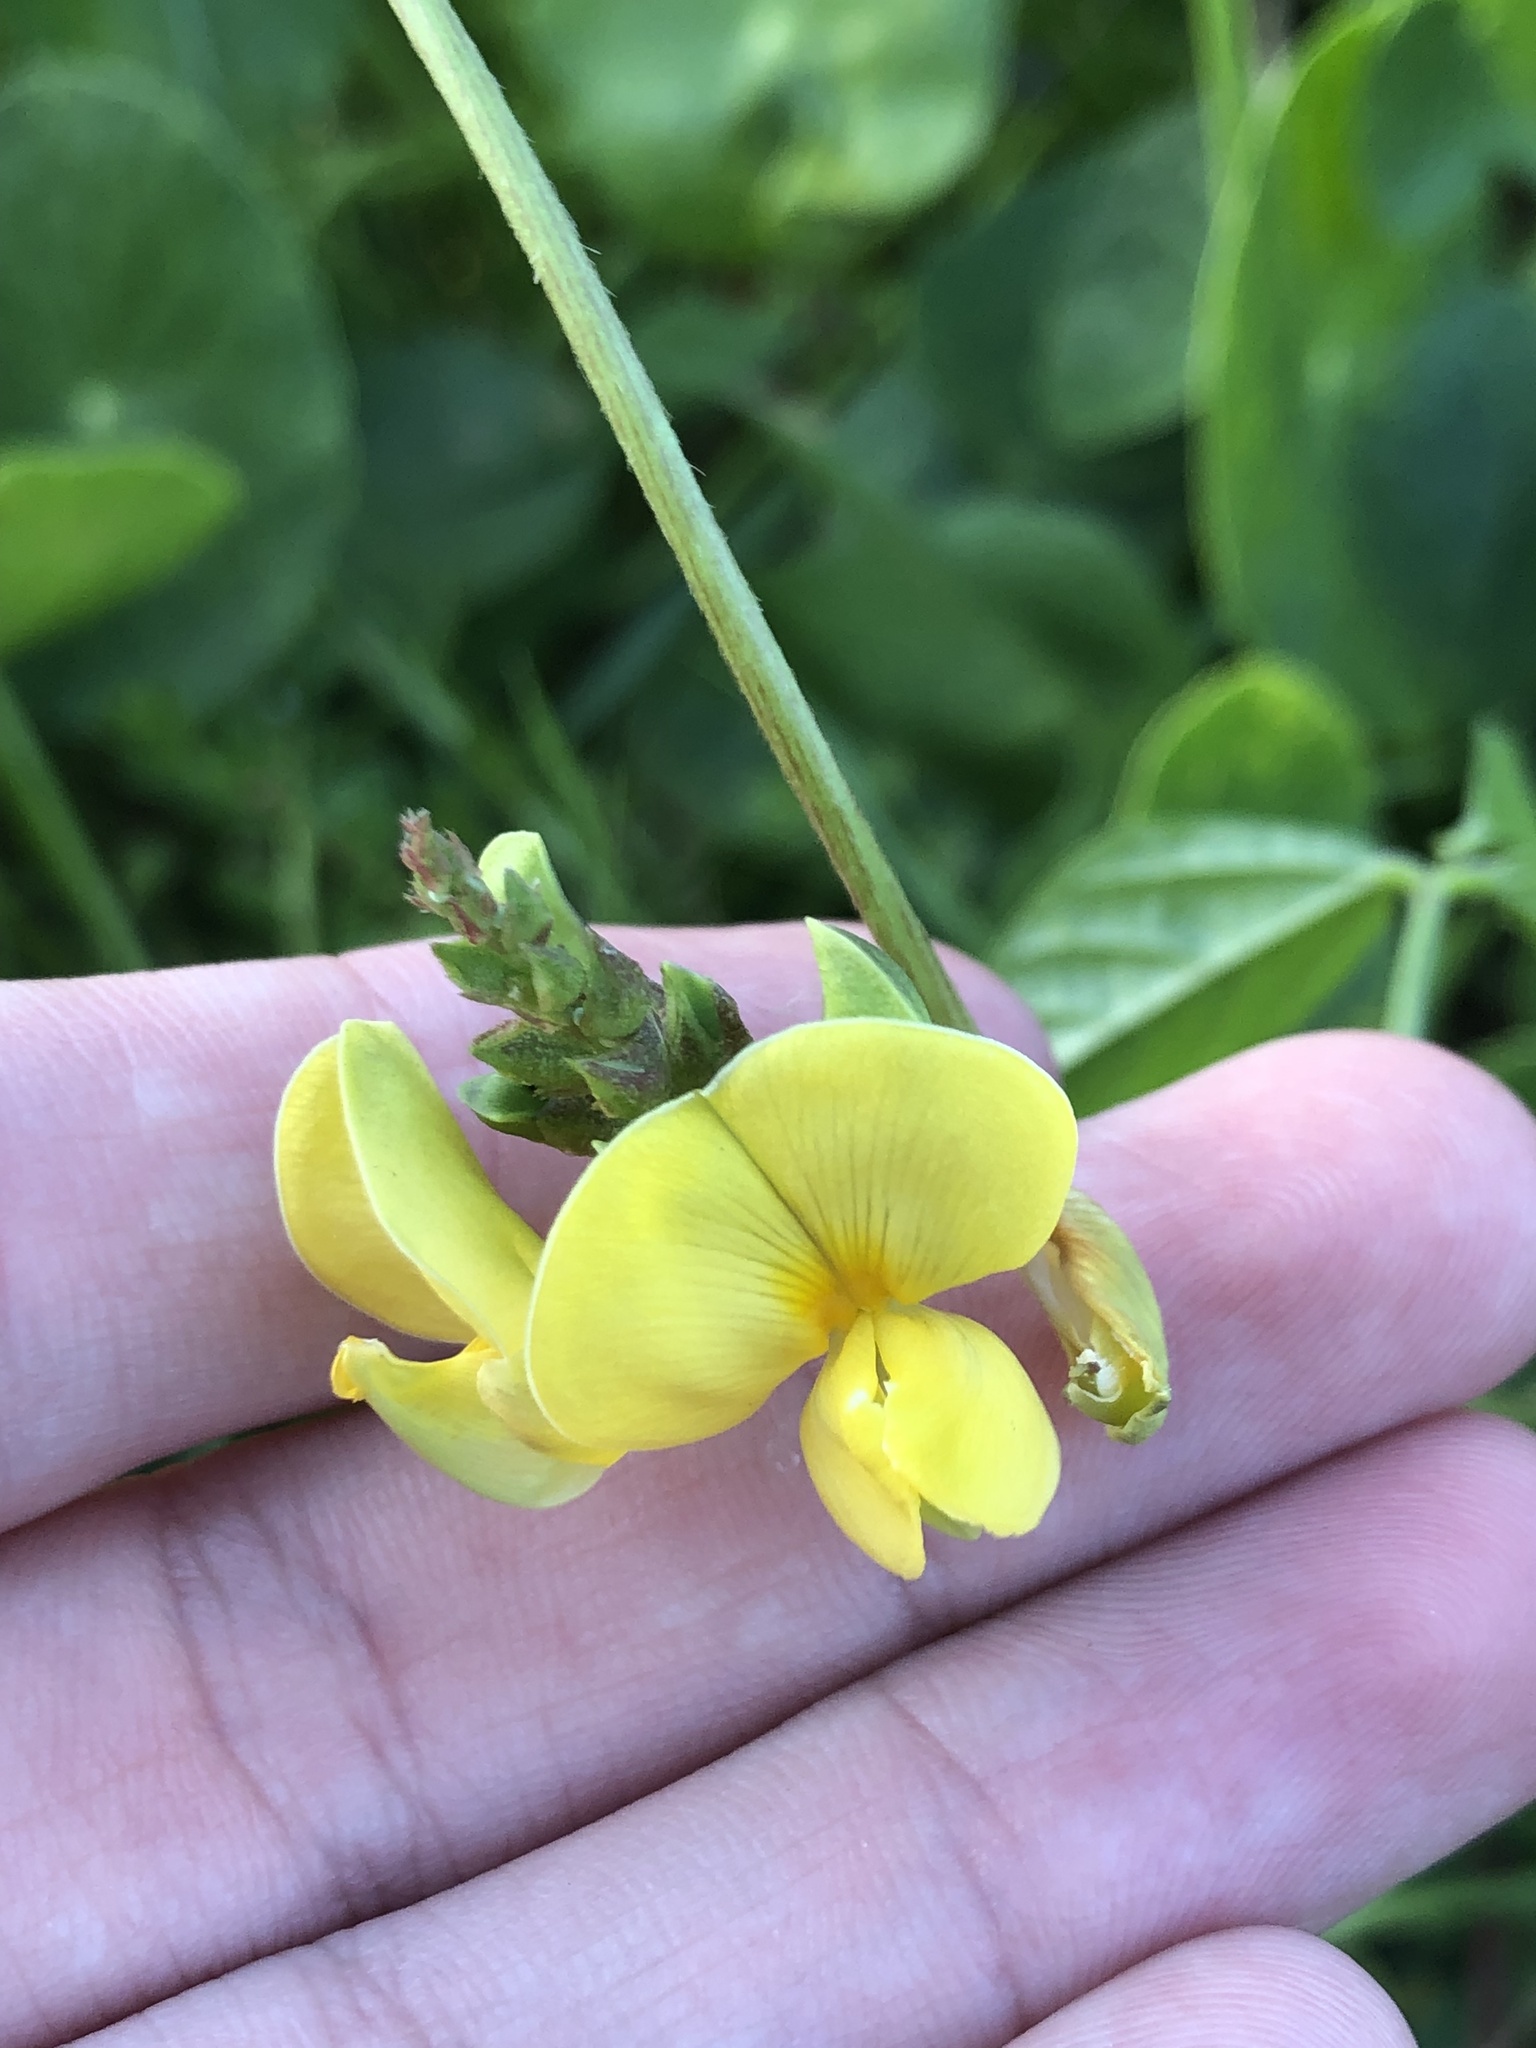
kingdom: Plantae
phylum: Tracheophyta
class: Magnoliopsida
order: Fabales
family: Fabaceae
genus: Vigna
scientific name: Vigna luteola
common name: Hairypod cowpea
